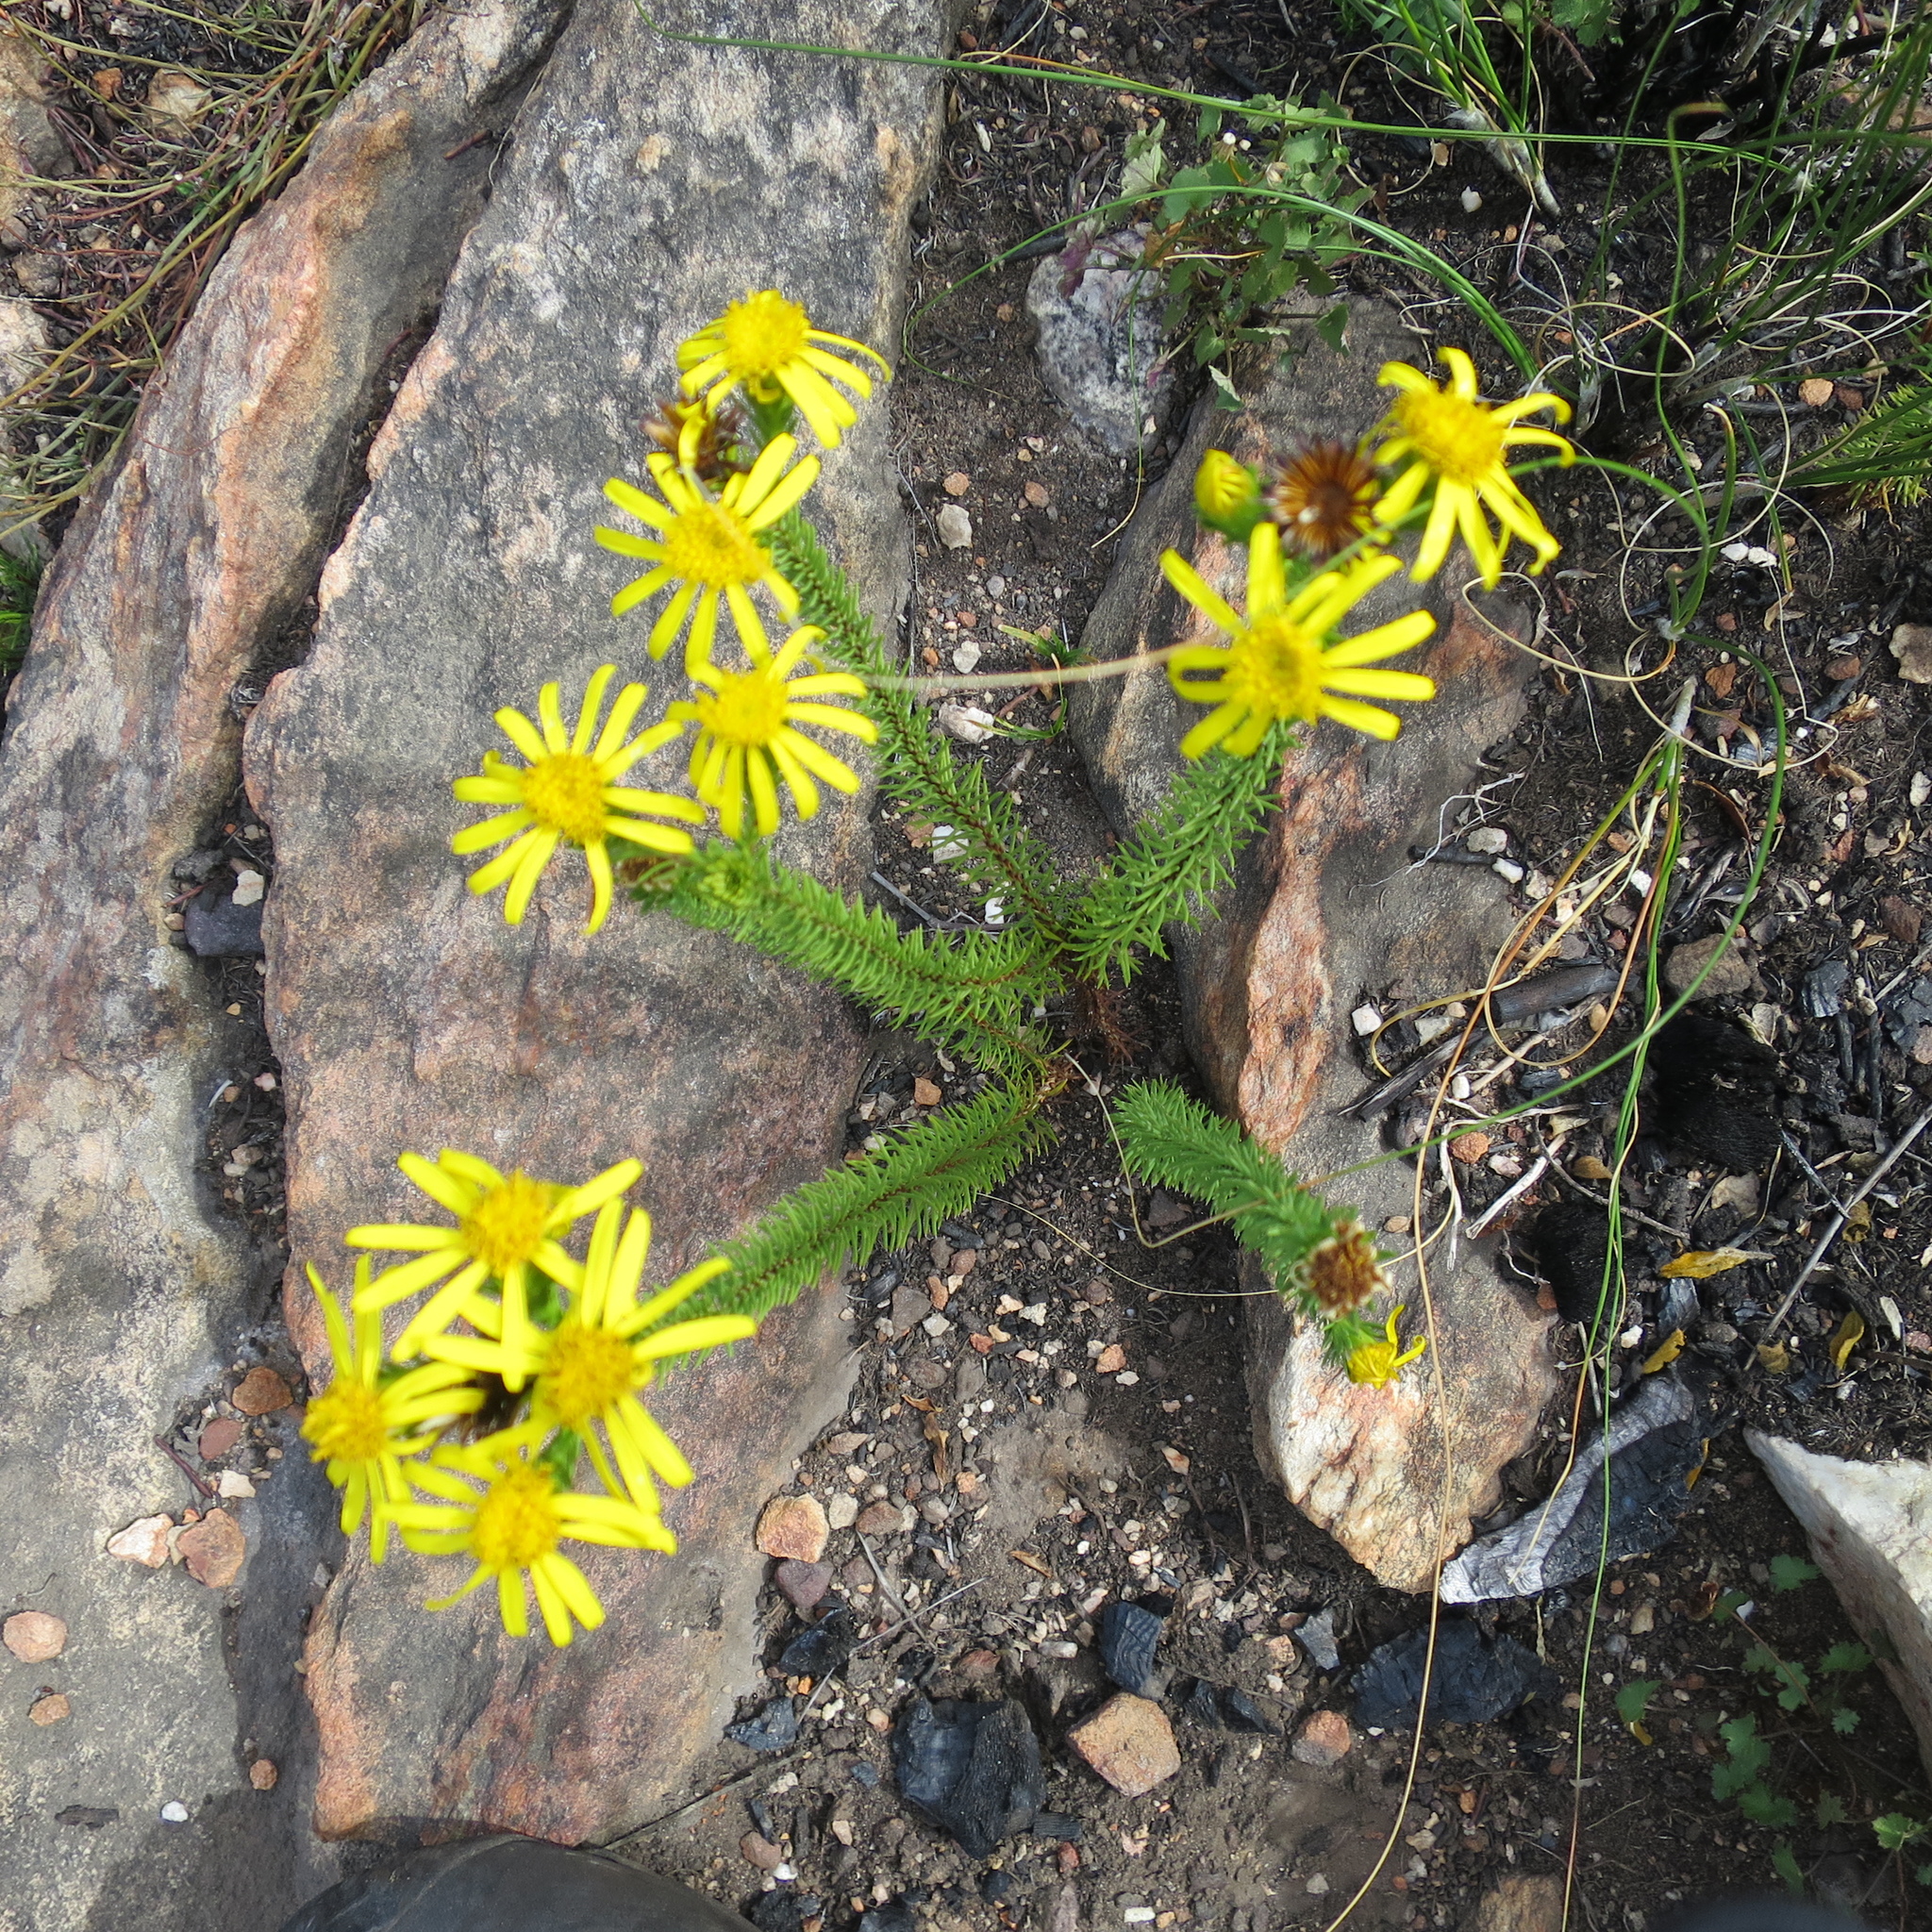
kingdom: Plantae
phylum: Tracheophyta
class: Magnoliopsida
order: Asterales
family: Asteraceae
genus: Senecio
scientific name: Senecio pinifolius
